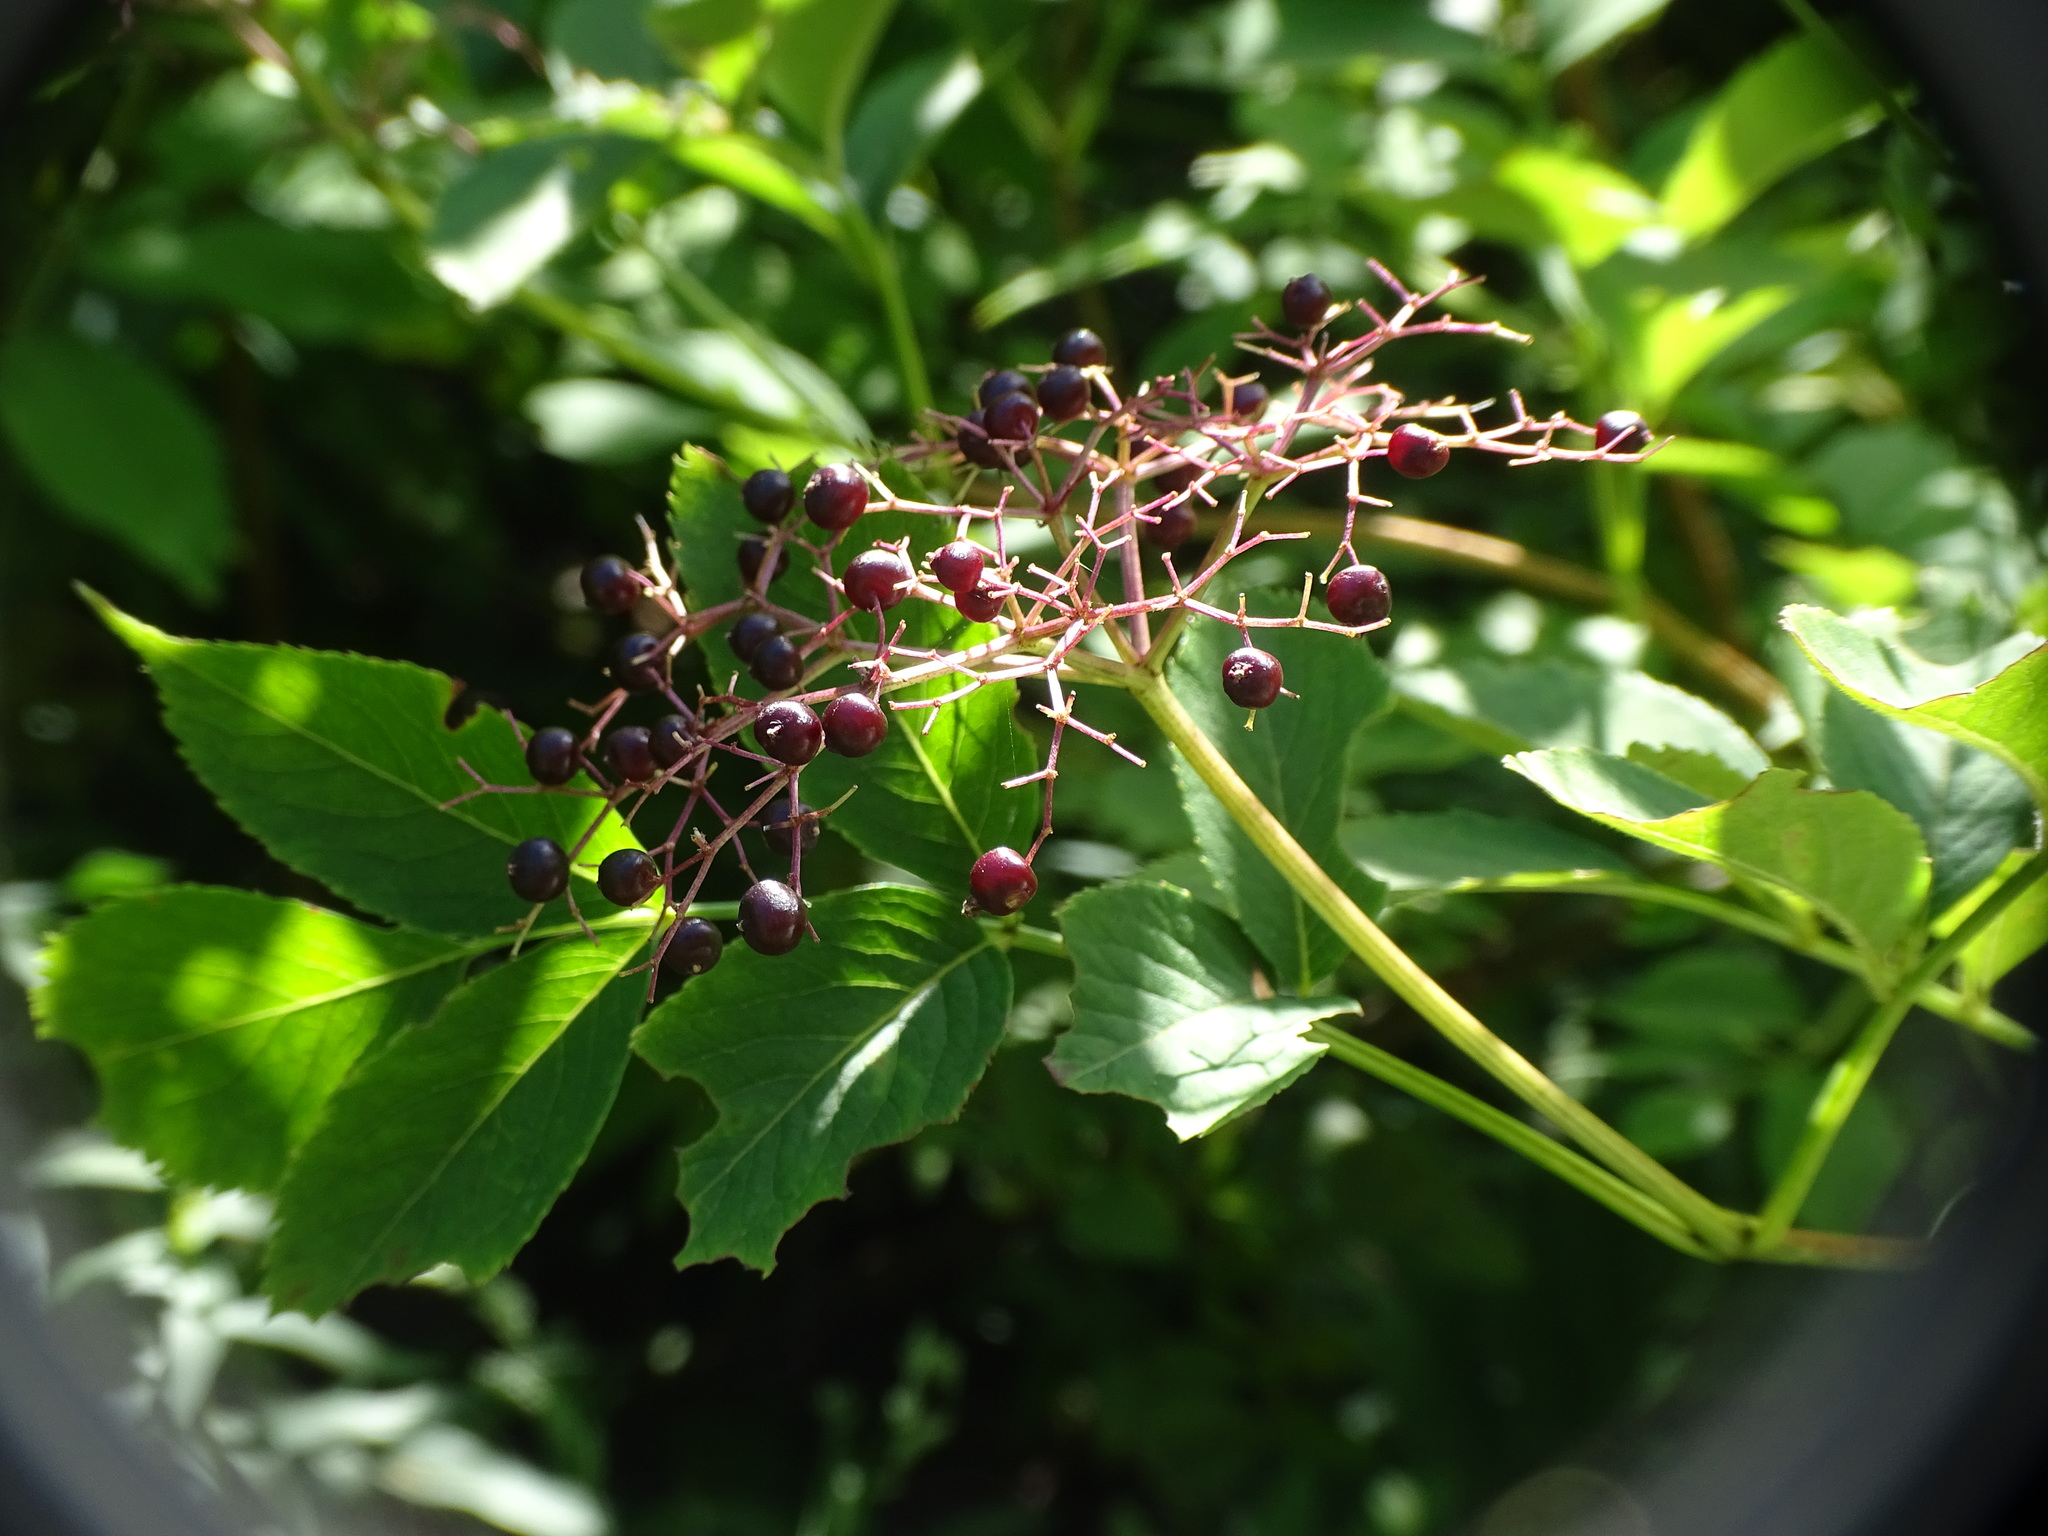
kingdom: Plantae
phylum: Tracheophyta
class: Magnoliopsida
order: Dipsacales
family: Viburnaceae
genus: Sambucus
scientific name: Sambucus canadensis
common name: American elder
